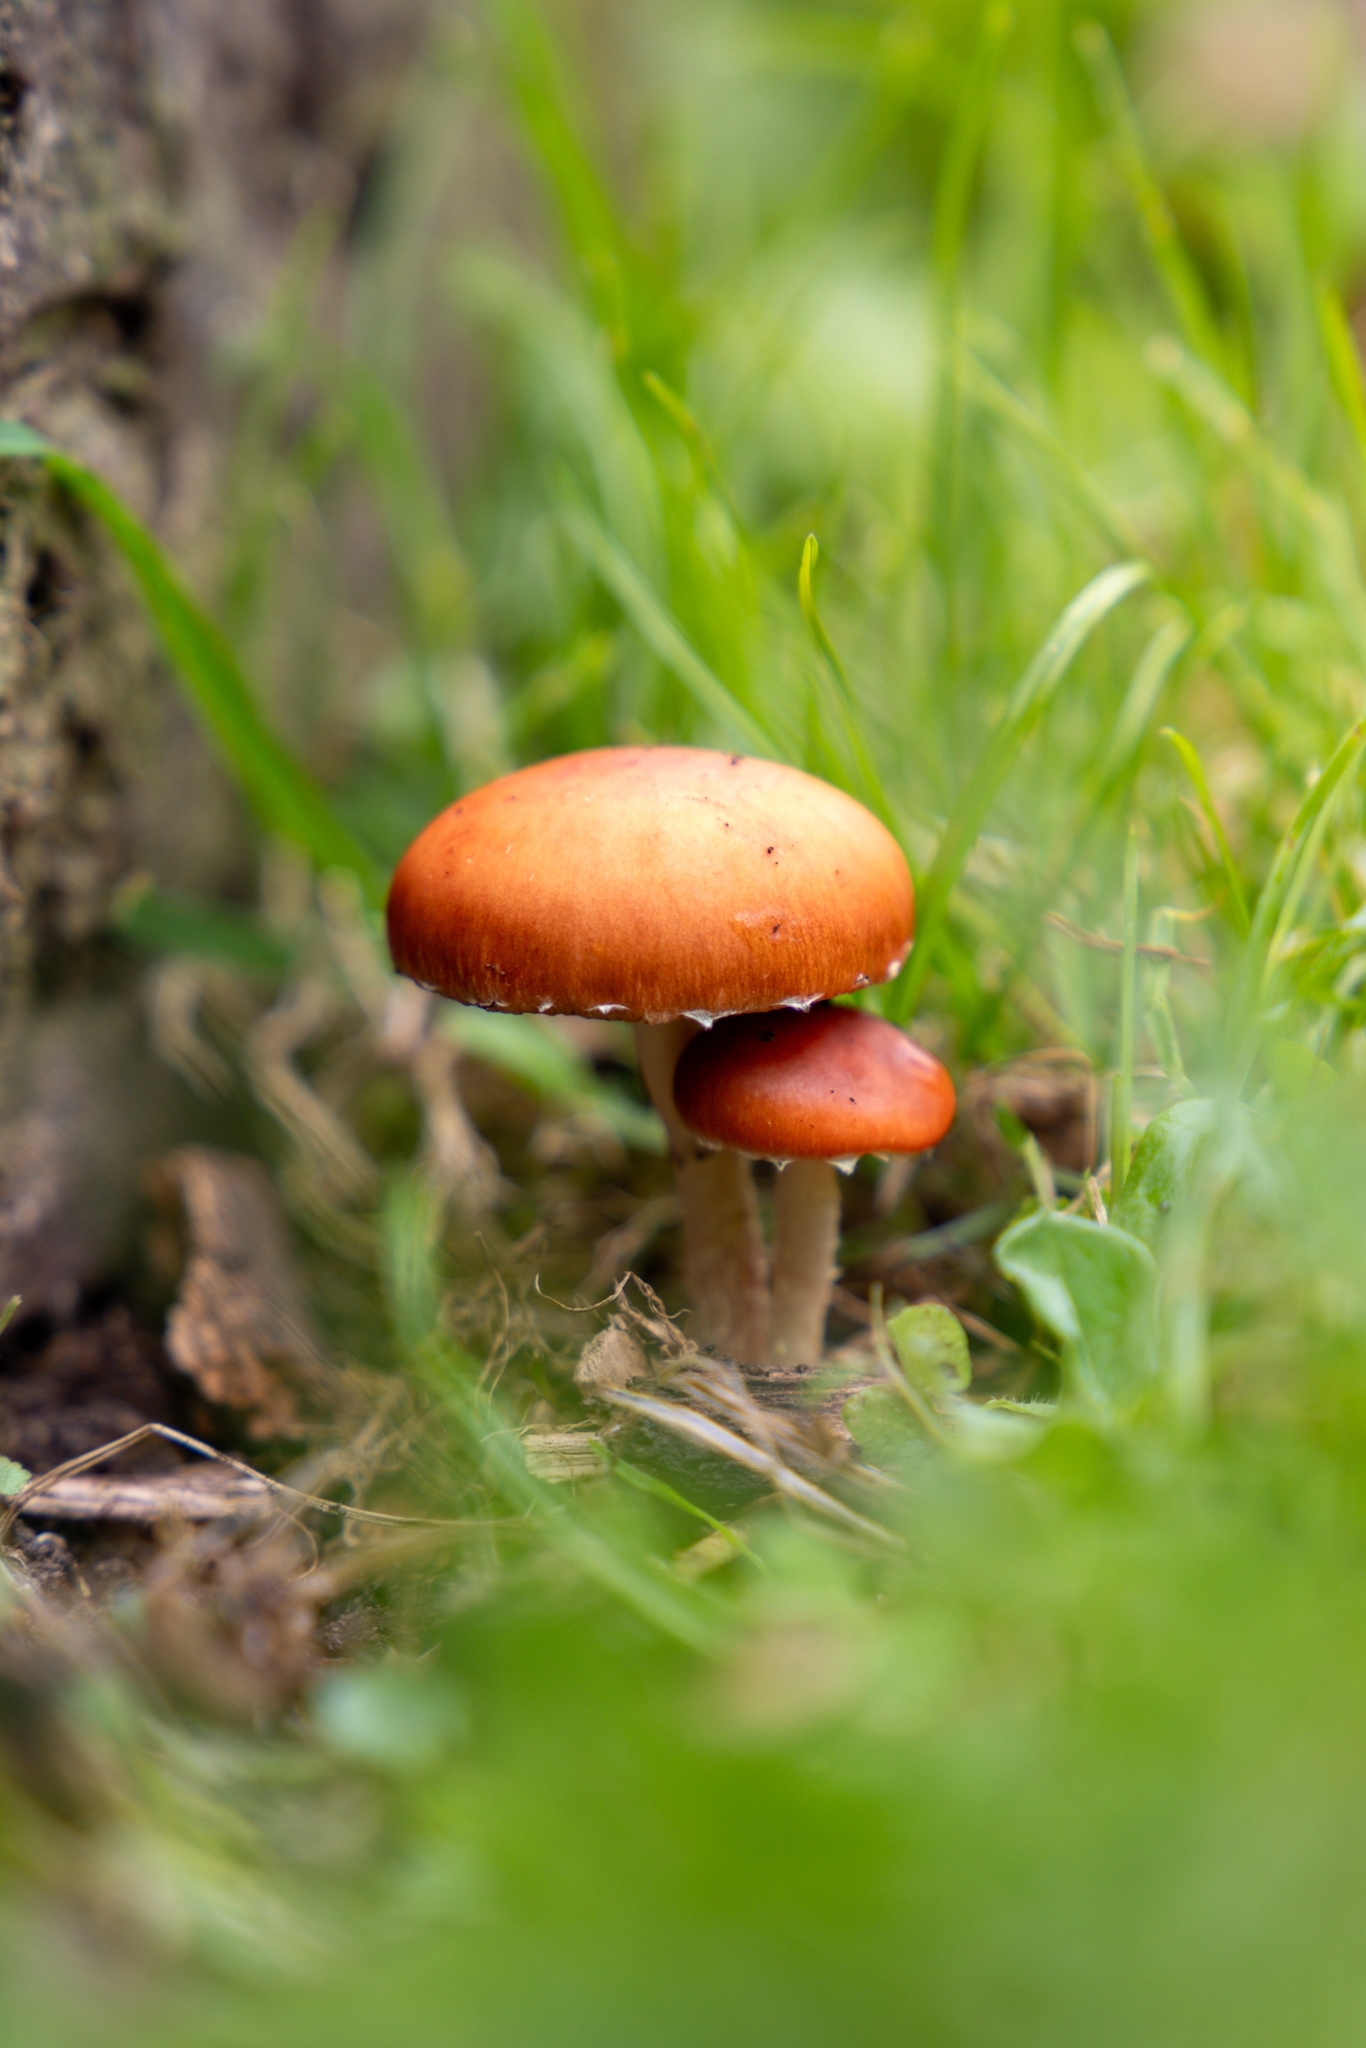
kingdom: Fungi
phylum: Basidiomycota
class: Agaricomycetes
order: Agaricales
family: Strophariaceae
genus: Leratiomyces
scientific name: Leratiomyces ceres
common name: Redlead roundhead
